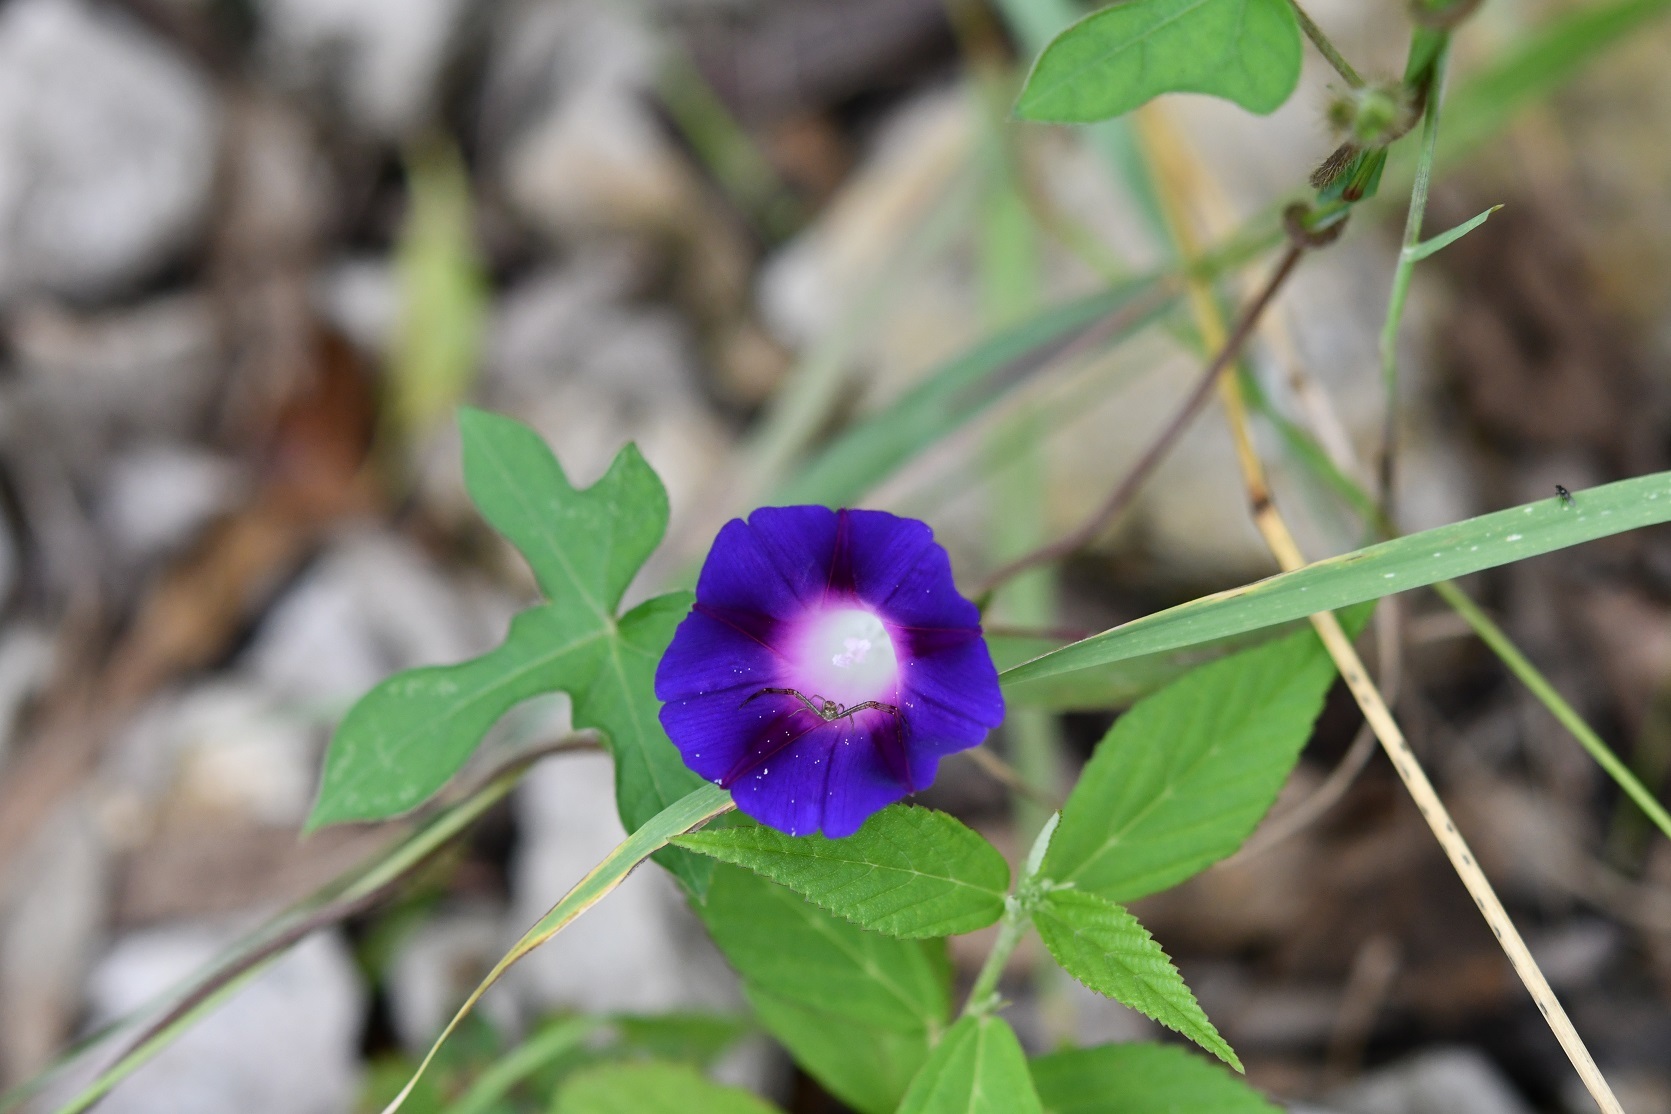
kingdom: Plantae
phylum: Tracheophyta
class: Magnoliopsida
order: Solanales
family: Convolvulaceae
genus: Ipomoea
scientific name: Ipomoea purpurea
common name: Common morning-glory
